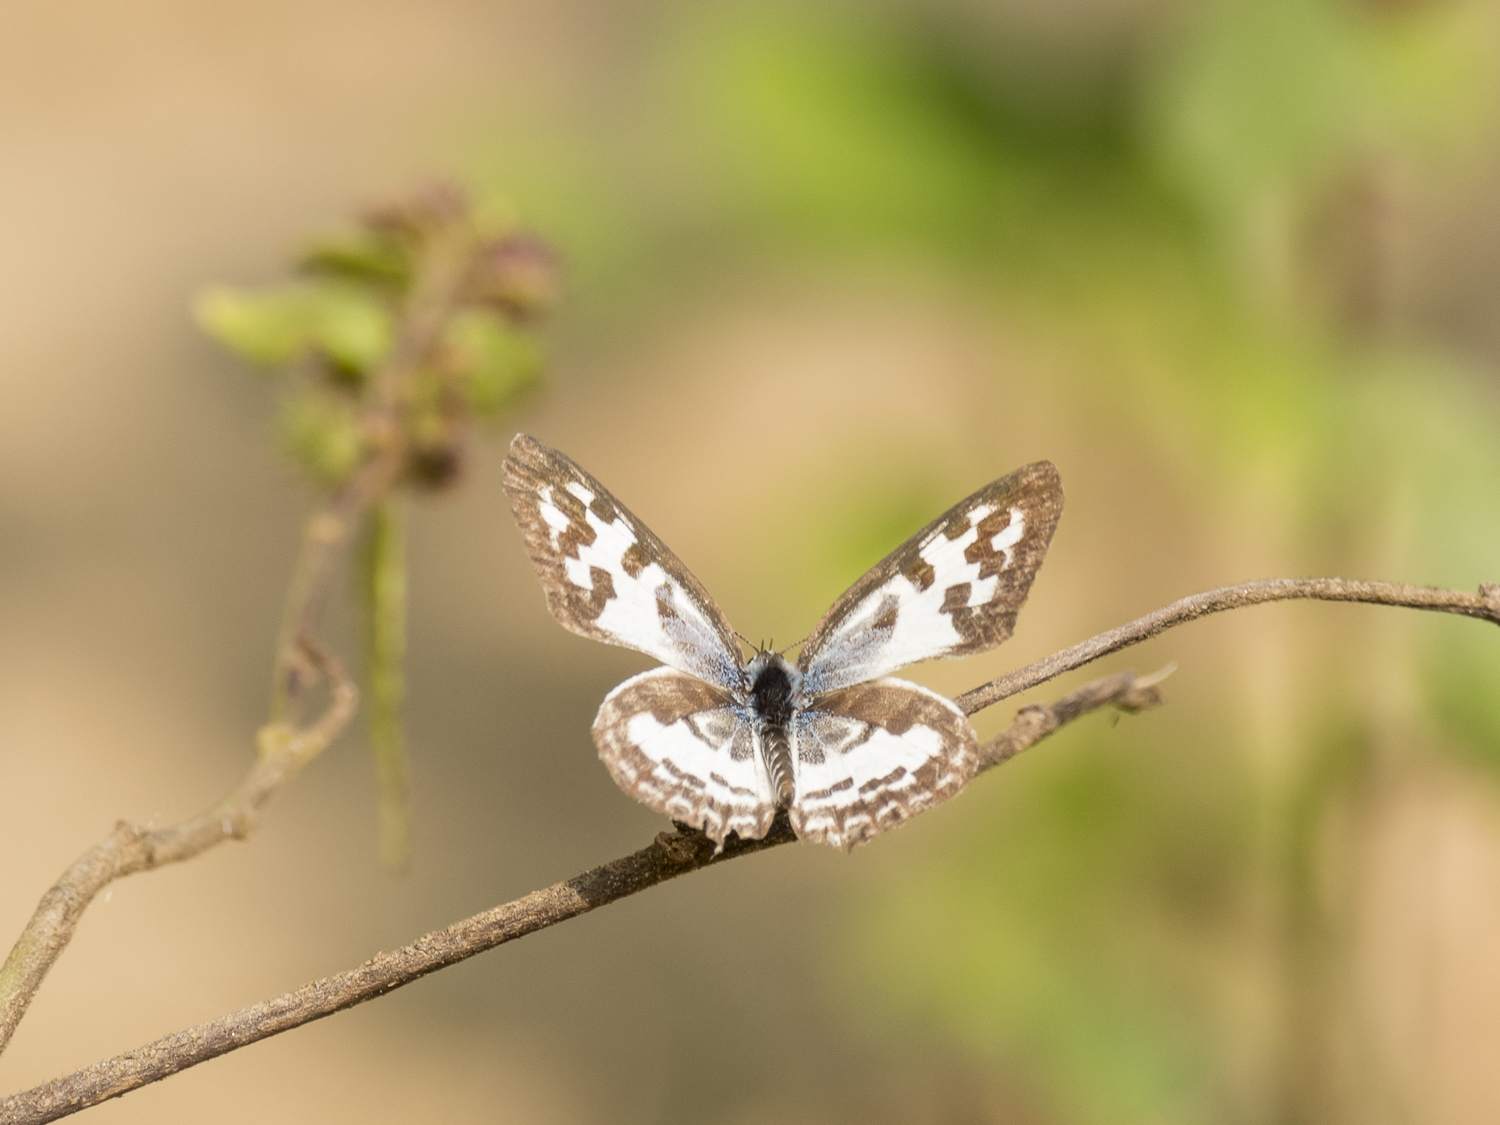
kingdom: Animalia
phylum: Arthropoda
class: Insecta
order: Lepidoptera
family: Lycaenidae
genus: Castalius
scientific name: Castalius rosimon
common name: Common pierrot
